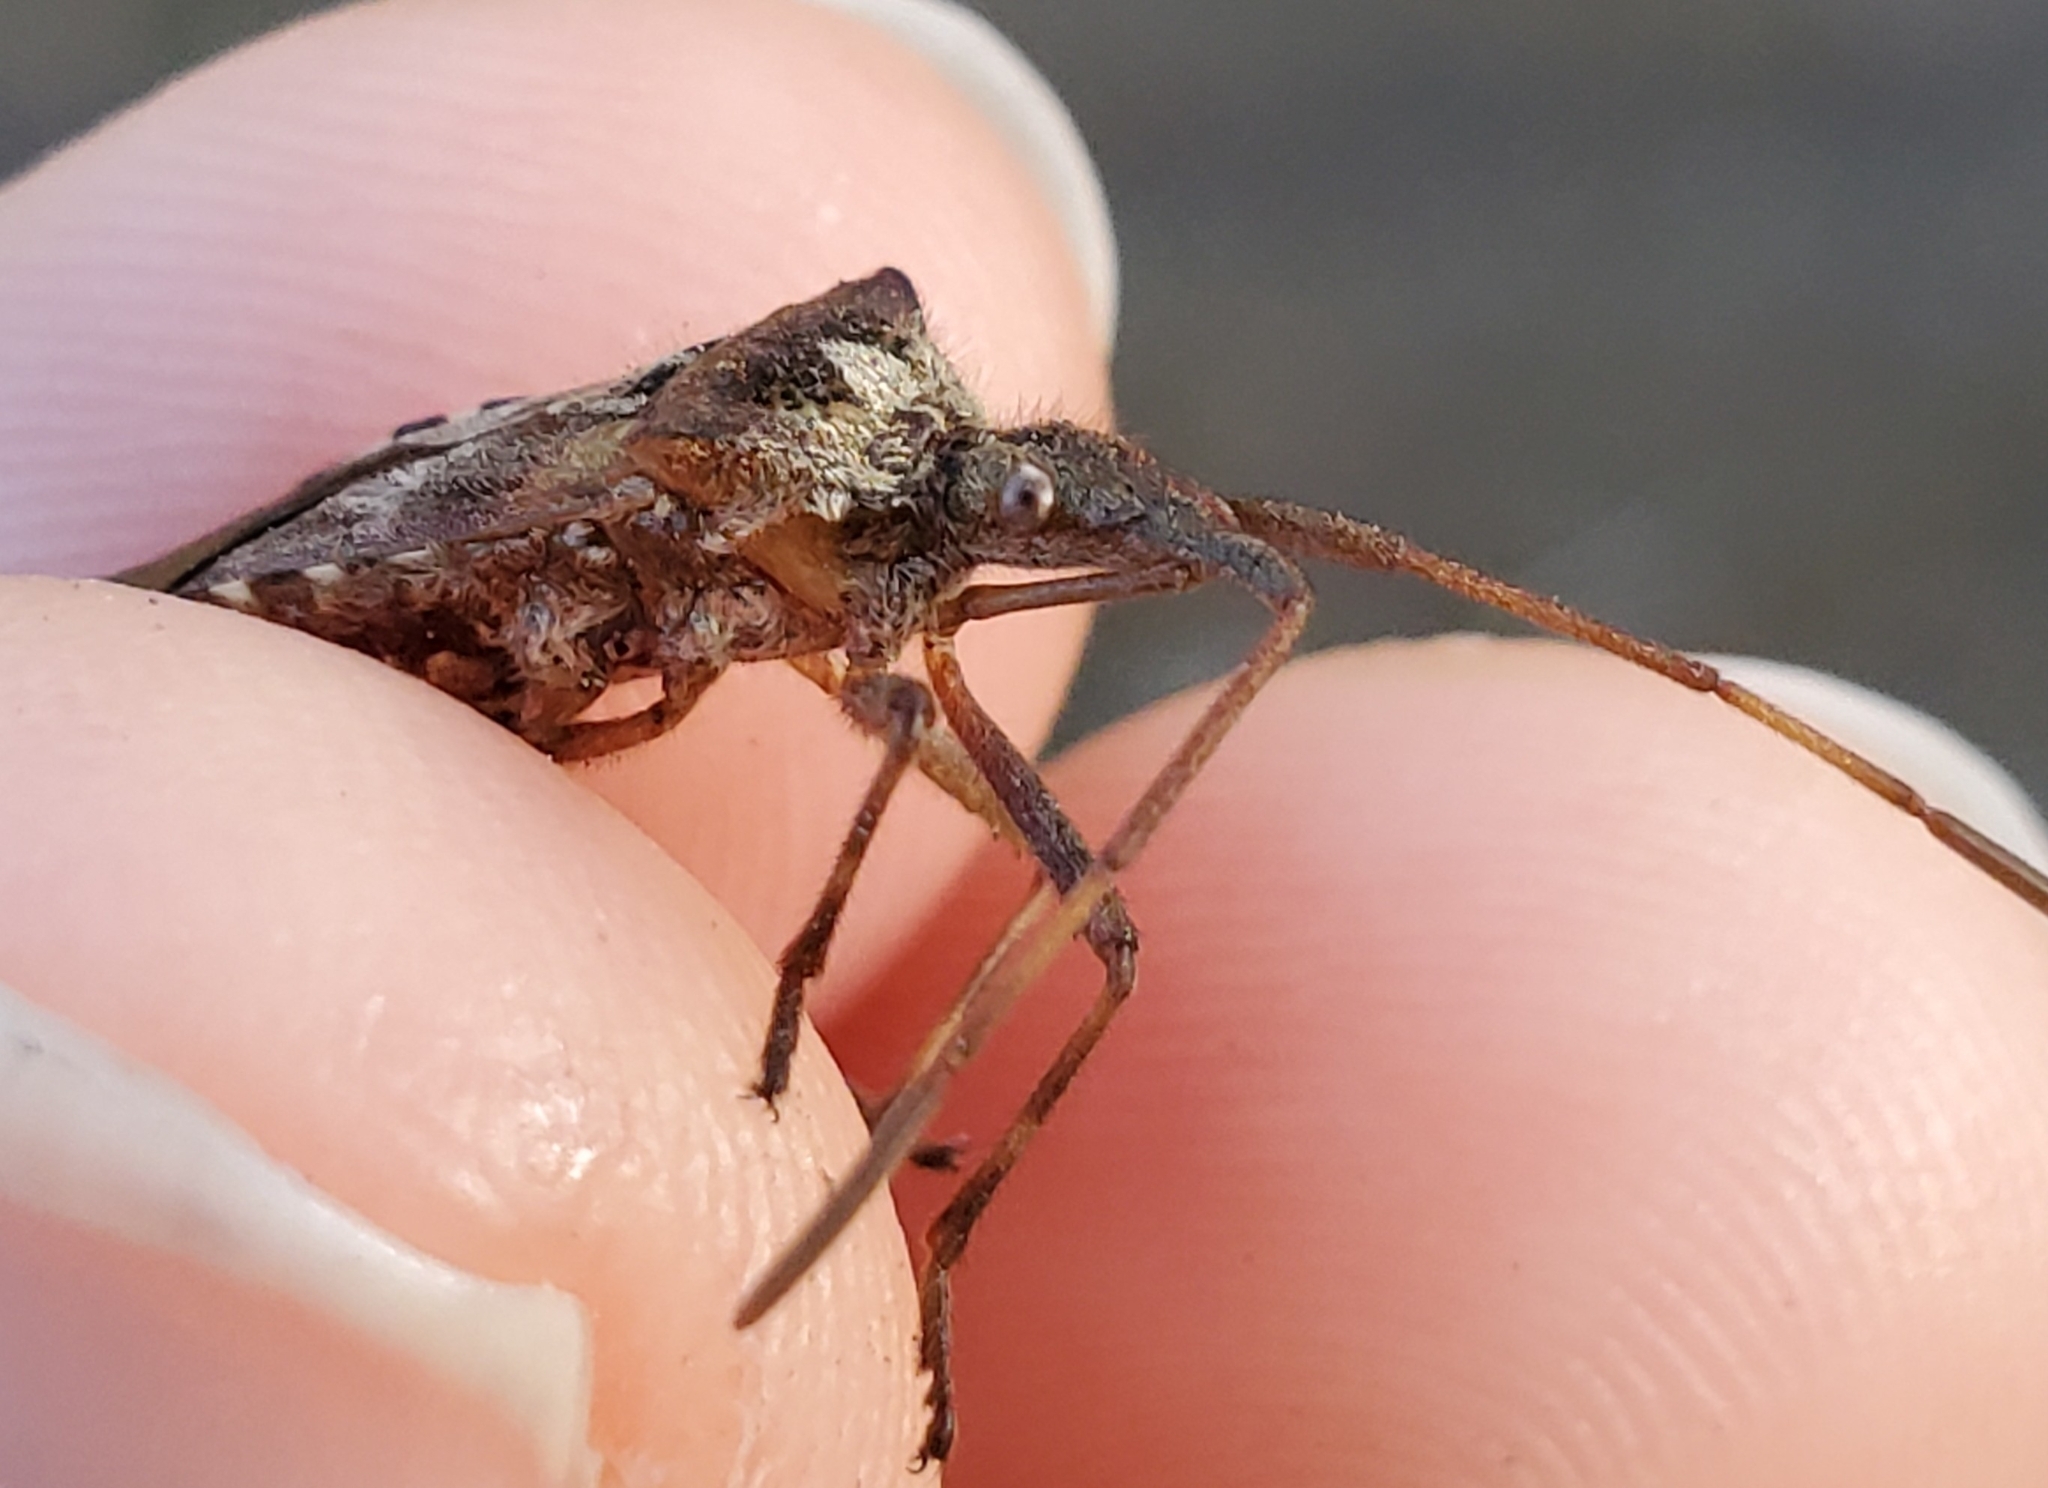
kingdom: Animalia
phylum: Arthropoda
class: Insecta
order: Hemiptera
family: Coreidae
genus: Leptoglossus
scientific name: Leptoglossus occidentalis
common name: Western conifer-seed bug
